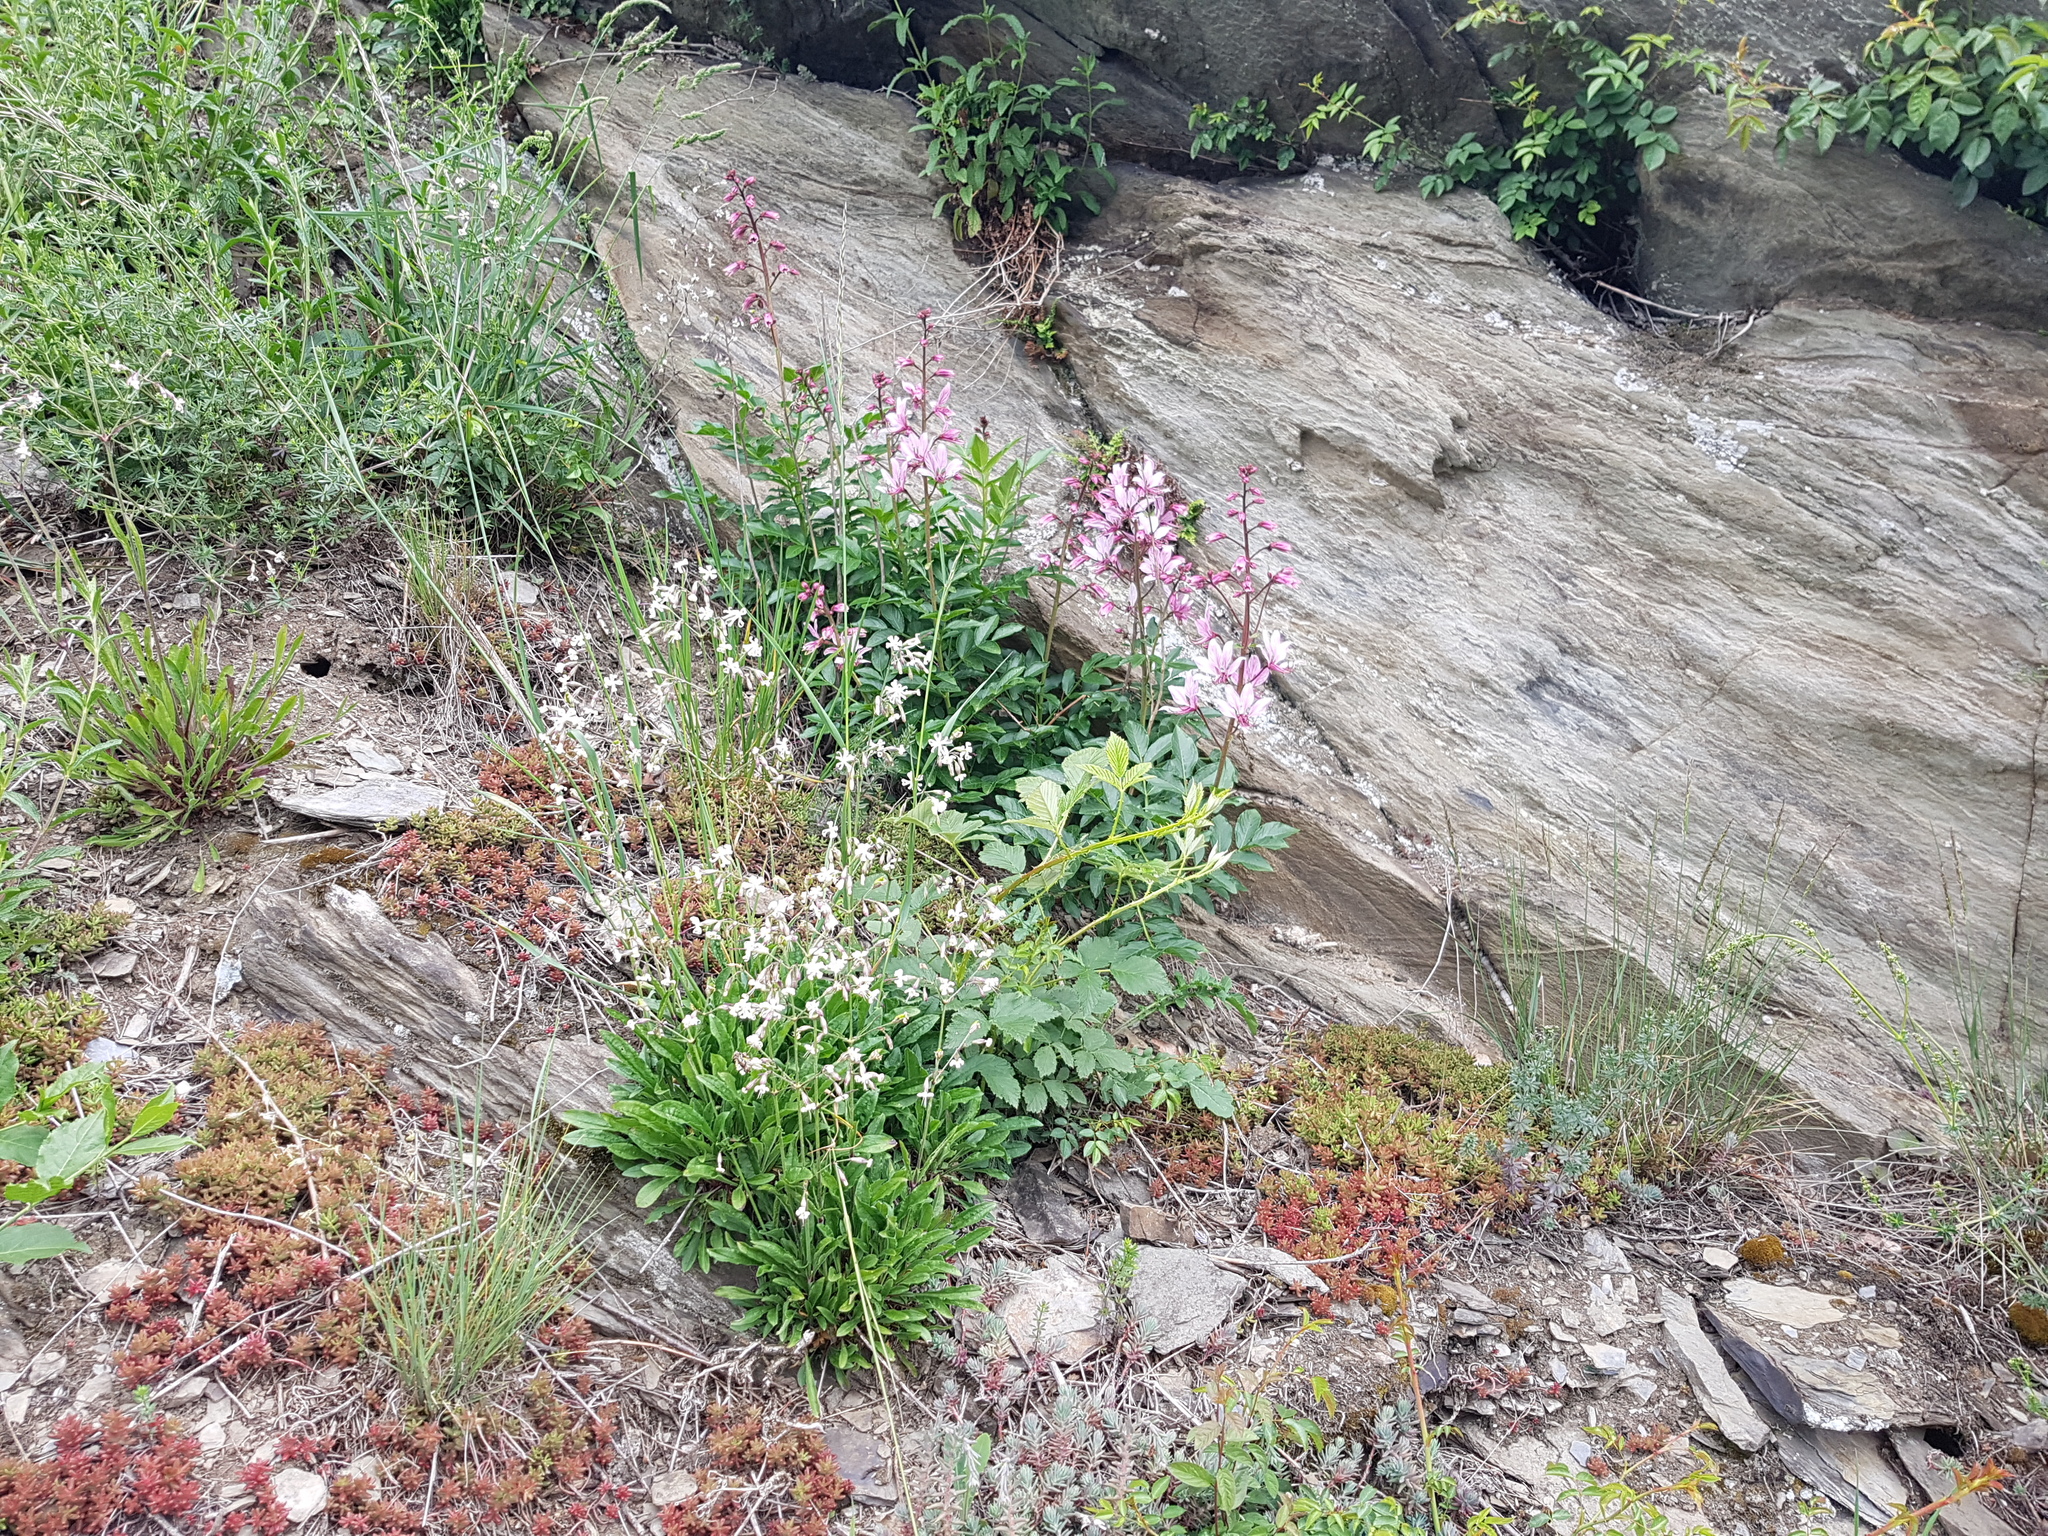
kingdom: Plantae
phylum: Tracheophyta
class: Magnoliopsida
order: Caryophyllales
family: Caryophyllaceae
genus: Silene
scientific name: Silene nutans
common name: Nottingham catchfly
